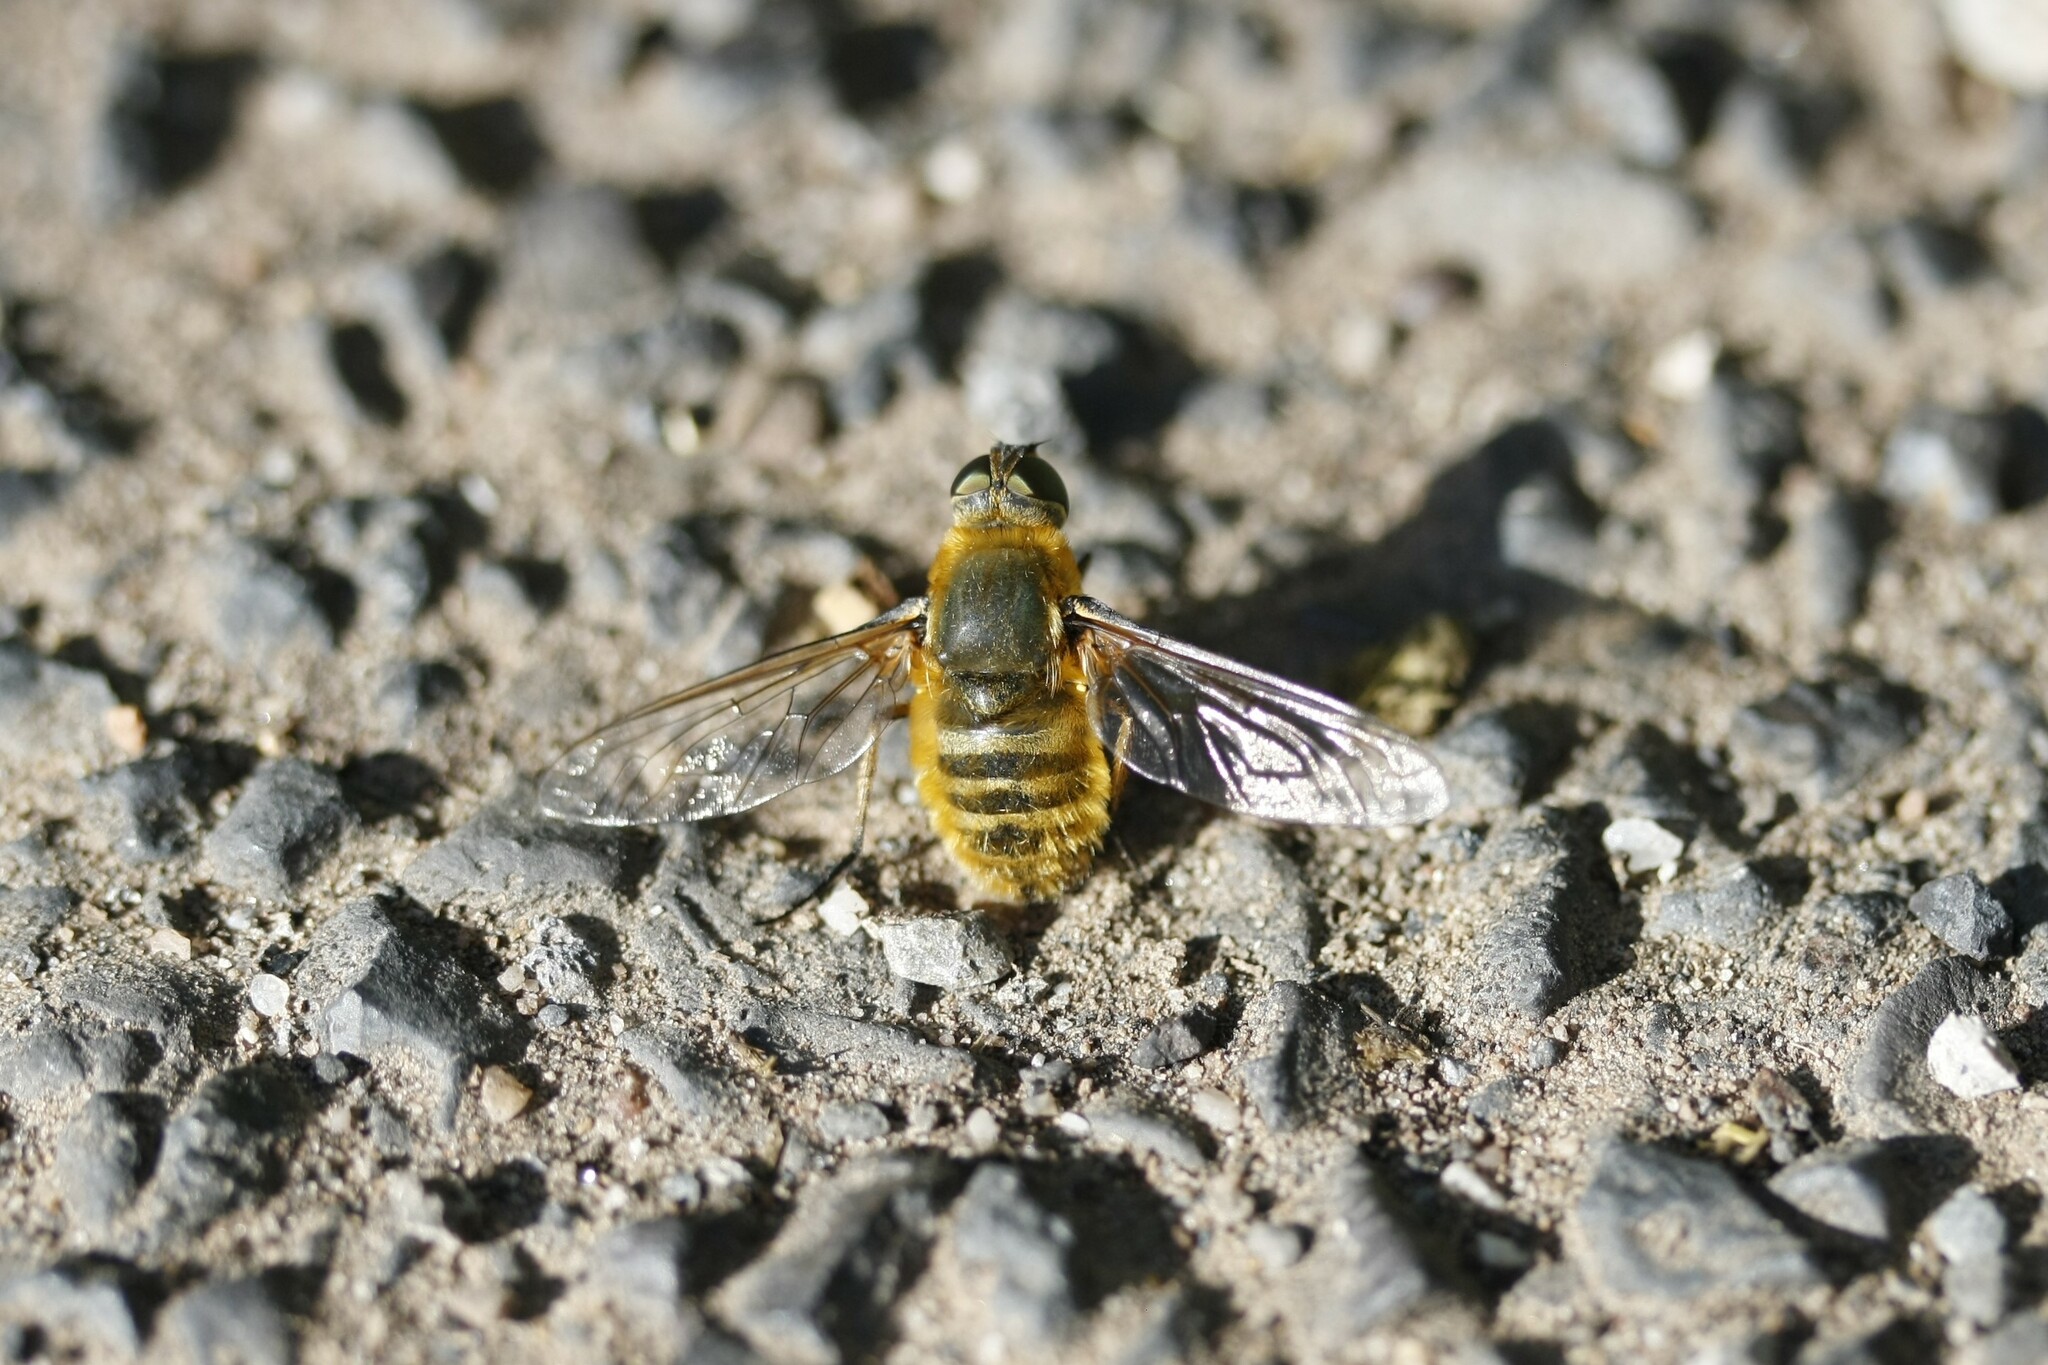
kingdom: Animalia
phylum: Arthropoda
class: Insecta
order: Diptera
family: Bombyliidae
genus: Villa
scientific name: Villa hottentotta
